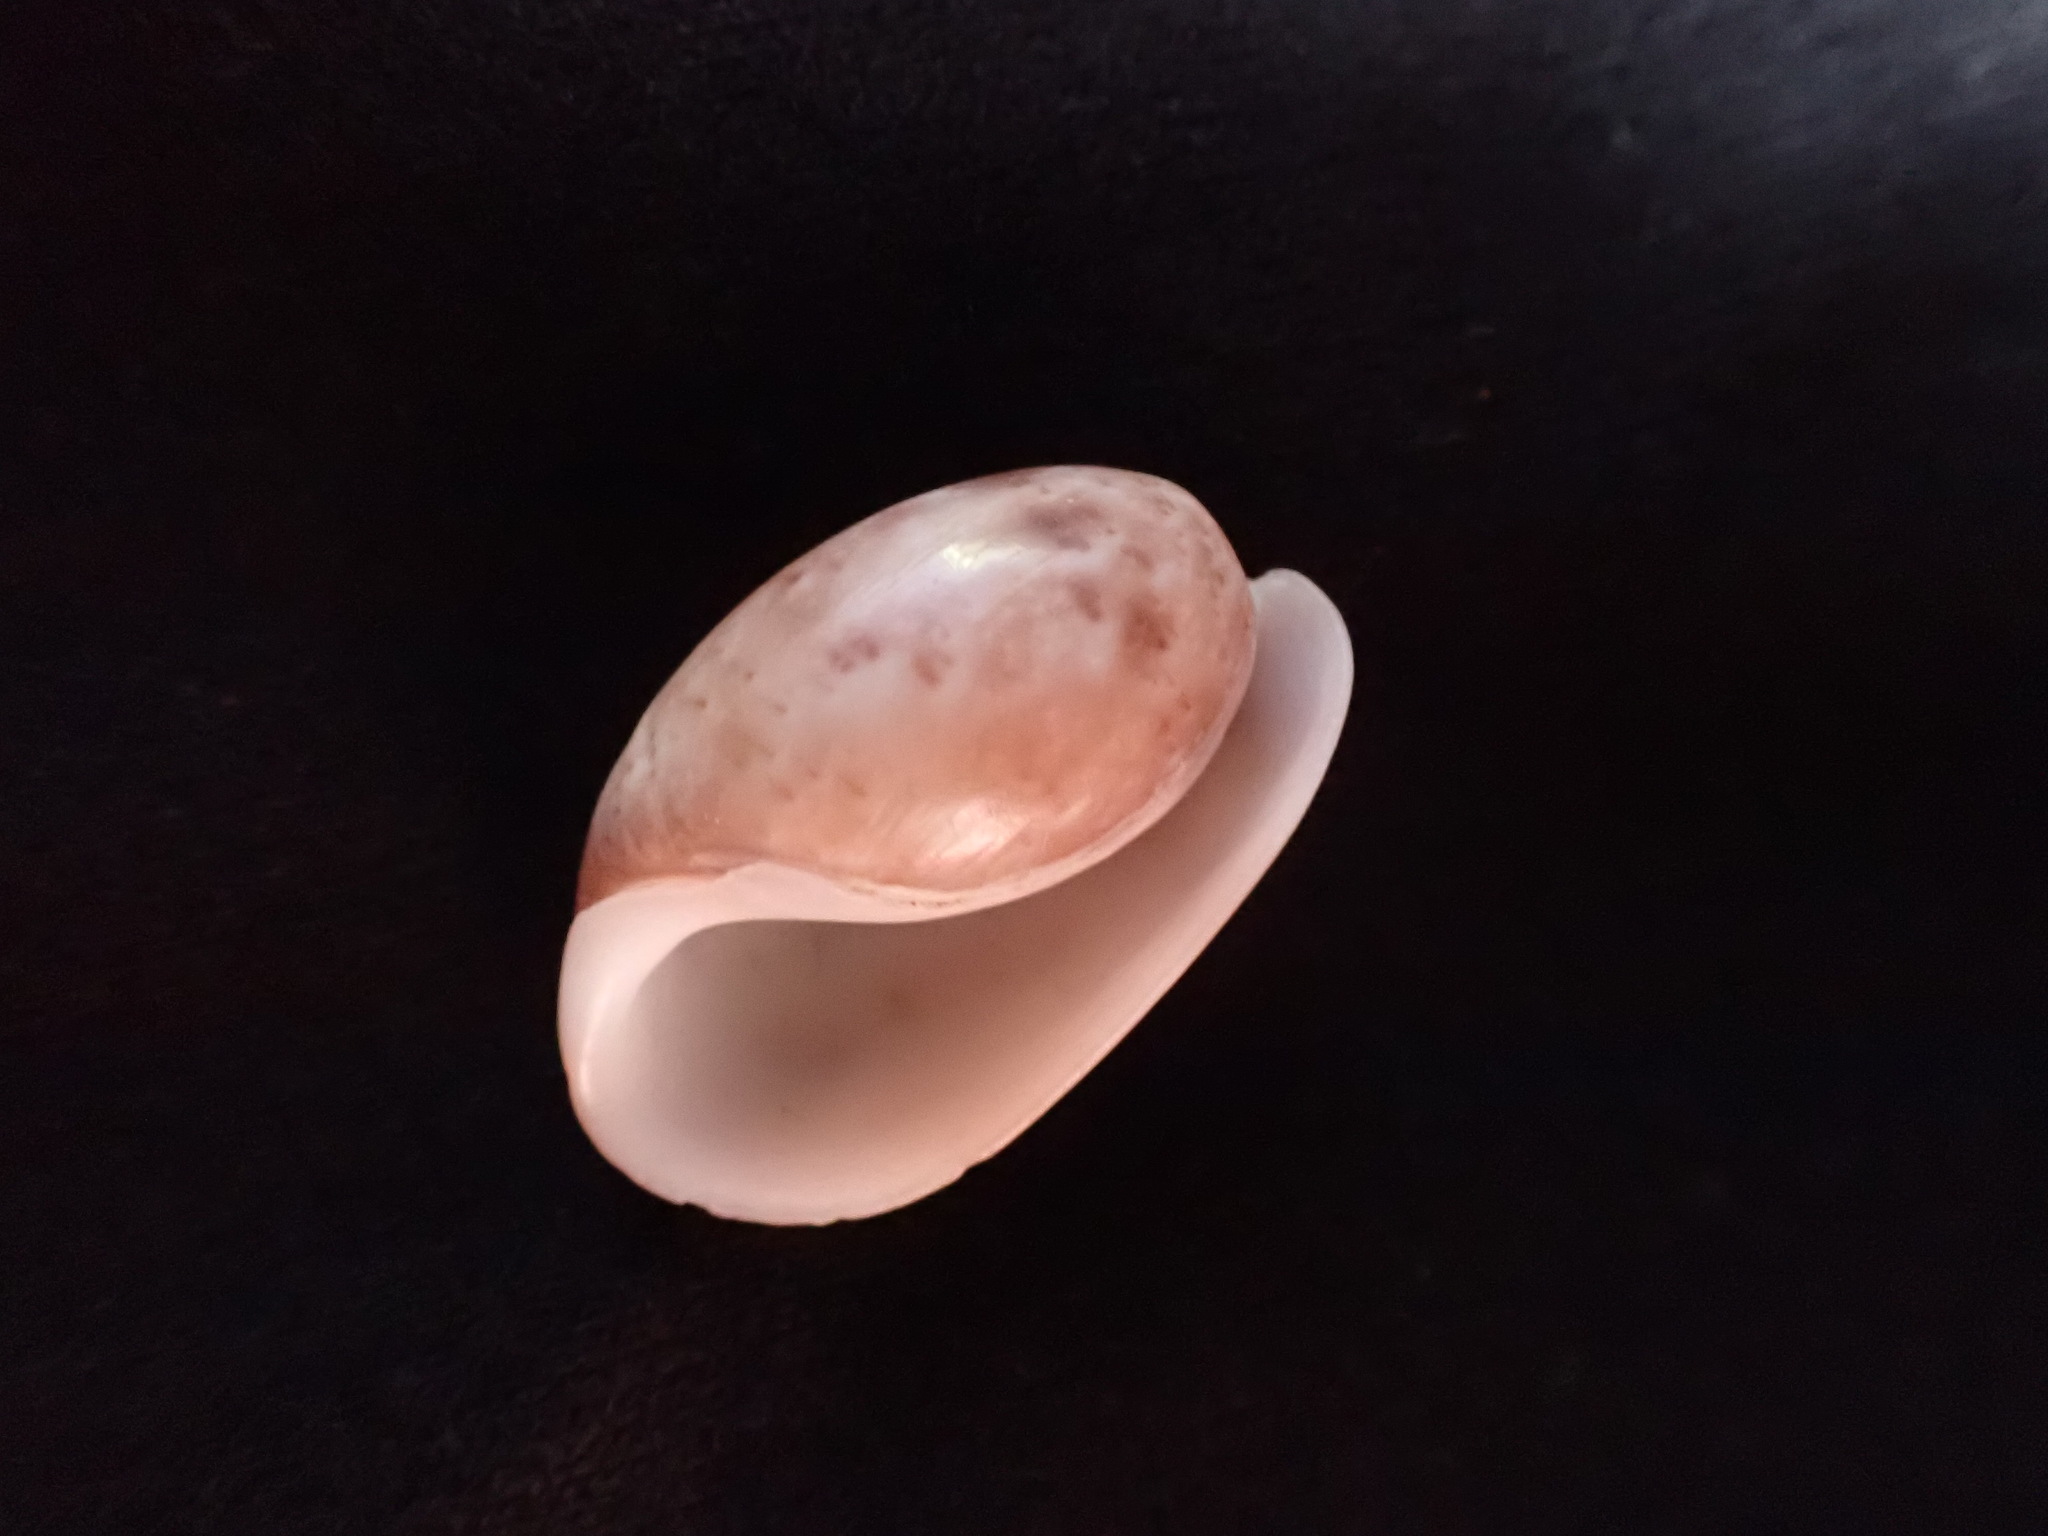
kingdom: Animalia
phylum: Mollusca
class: Gastropoda
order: Cephalaspidea
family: Bullidae
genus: Bulla
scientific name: Bulla vernicosa
